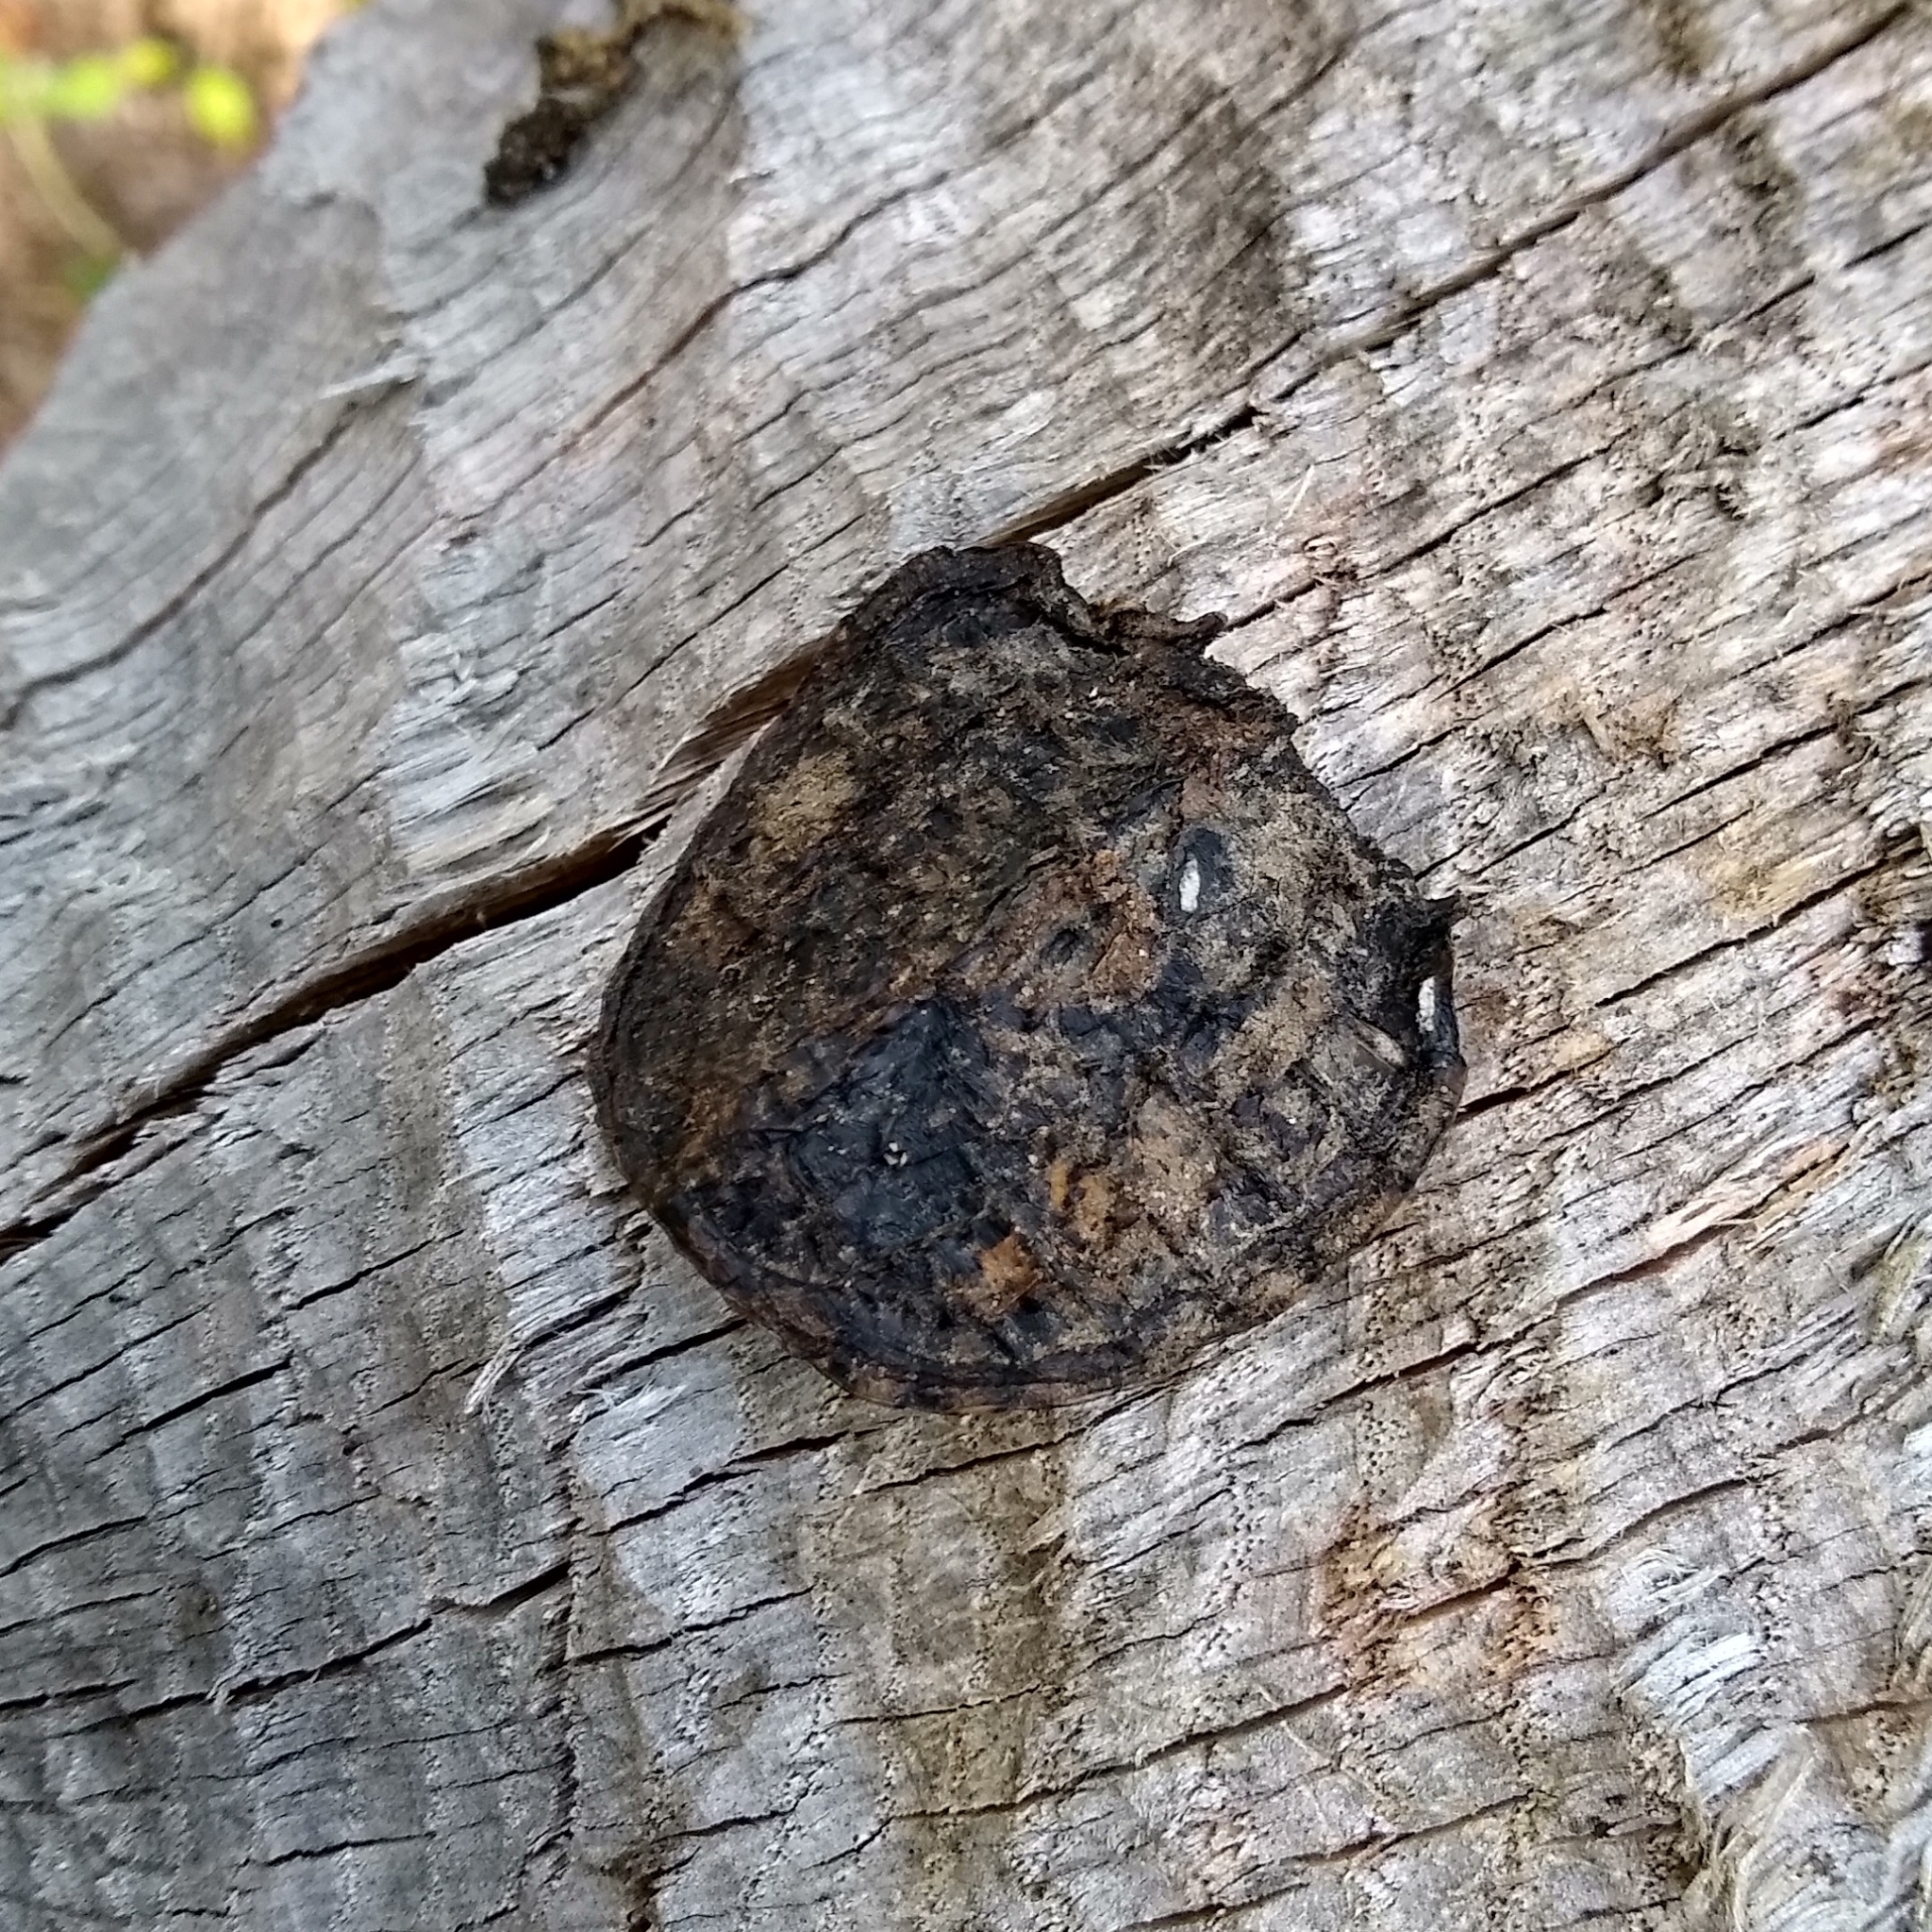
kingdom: Animalia
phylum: Chordata
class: Testudines
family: Chelydridae
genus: Chelydra
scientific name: Chelydra serpentina
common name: Common snapping turtle
